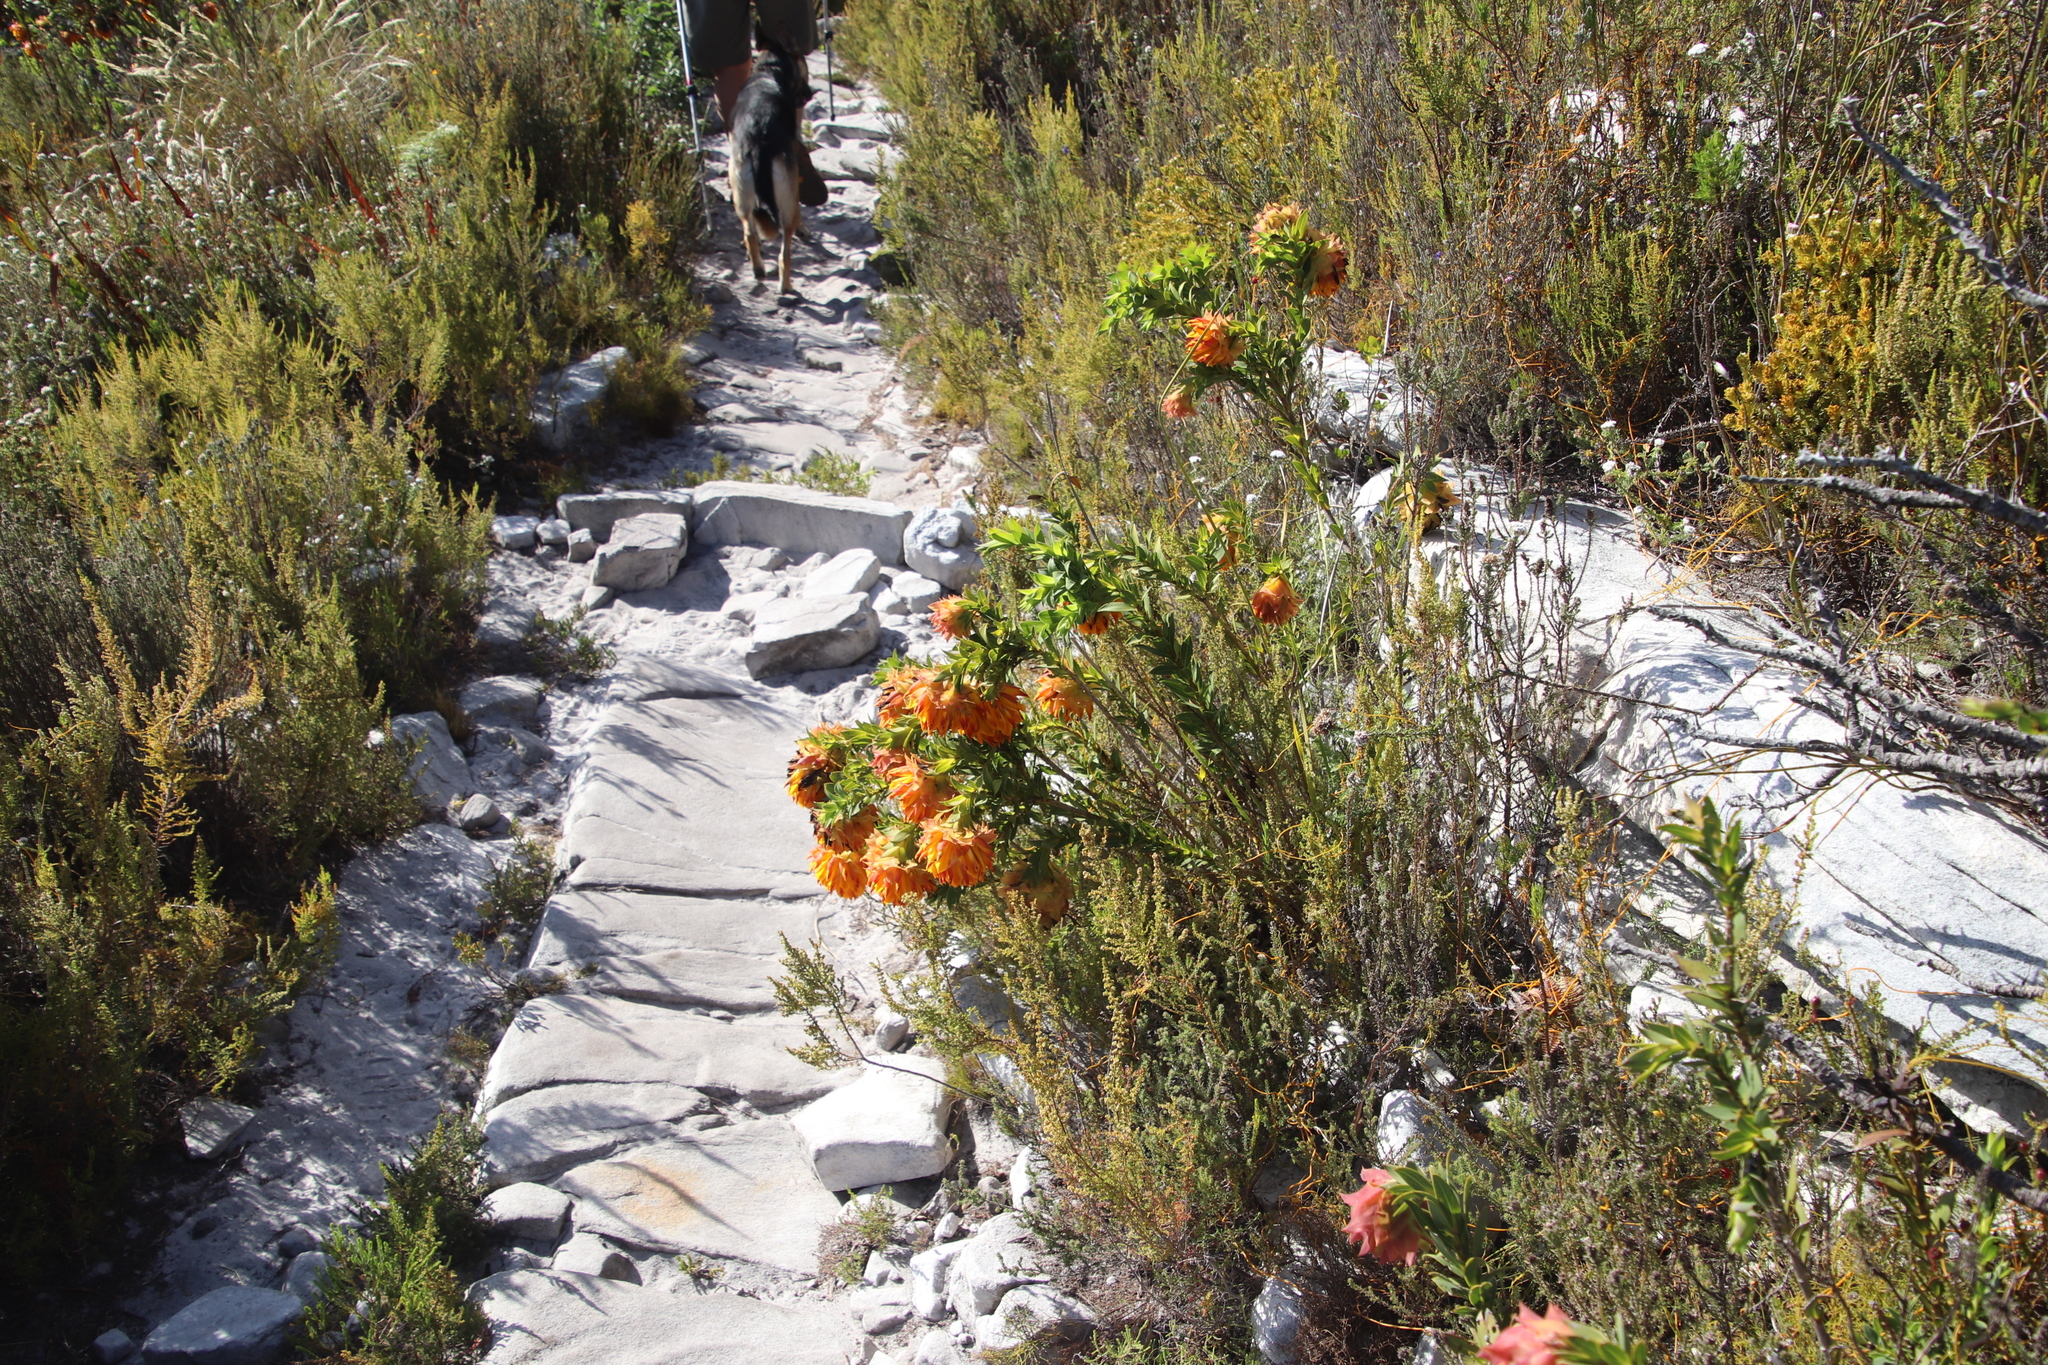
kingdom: Plantae
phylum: Tracheophyta
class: Magnoliopsida
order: Fabales
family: Fabaceae
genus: Liparia
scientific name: Liparia splendens
